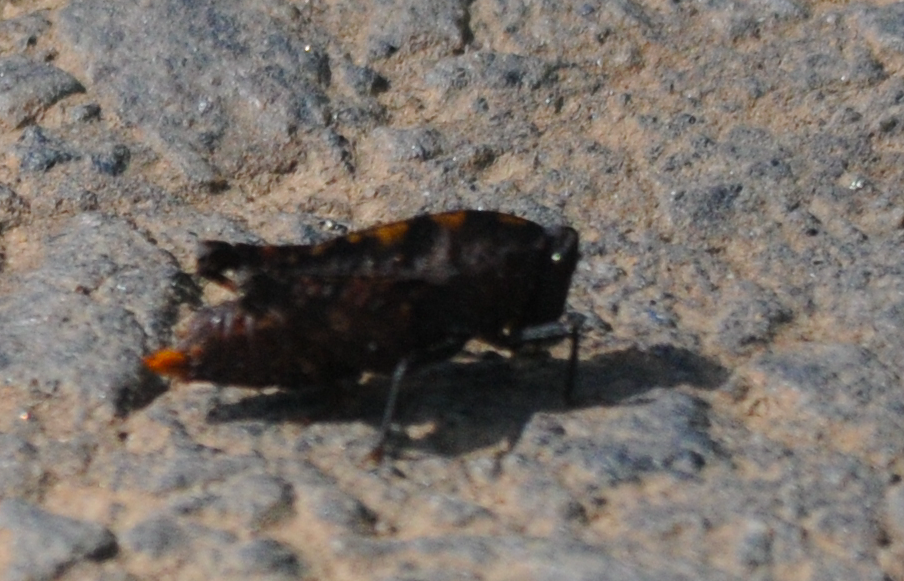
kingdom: Animalia
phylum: Arthropoda
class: Insecta
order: Orthoptera
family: Tetrigidae
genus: Thymochares
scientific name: Thymochares bolivari
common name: Bolivar's helmed pygmy grasshopper
